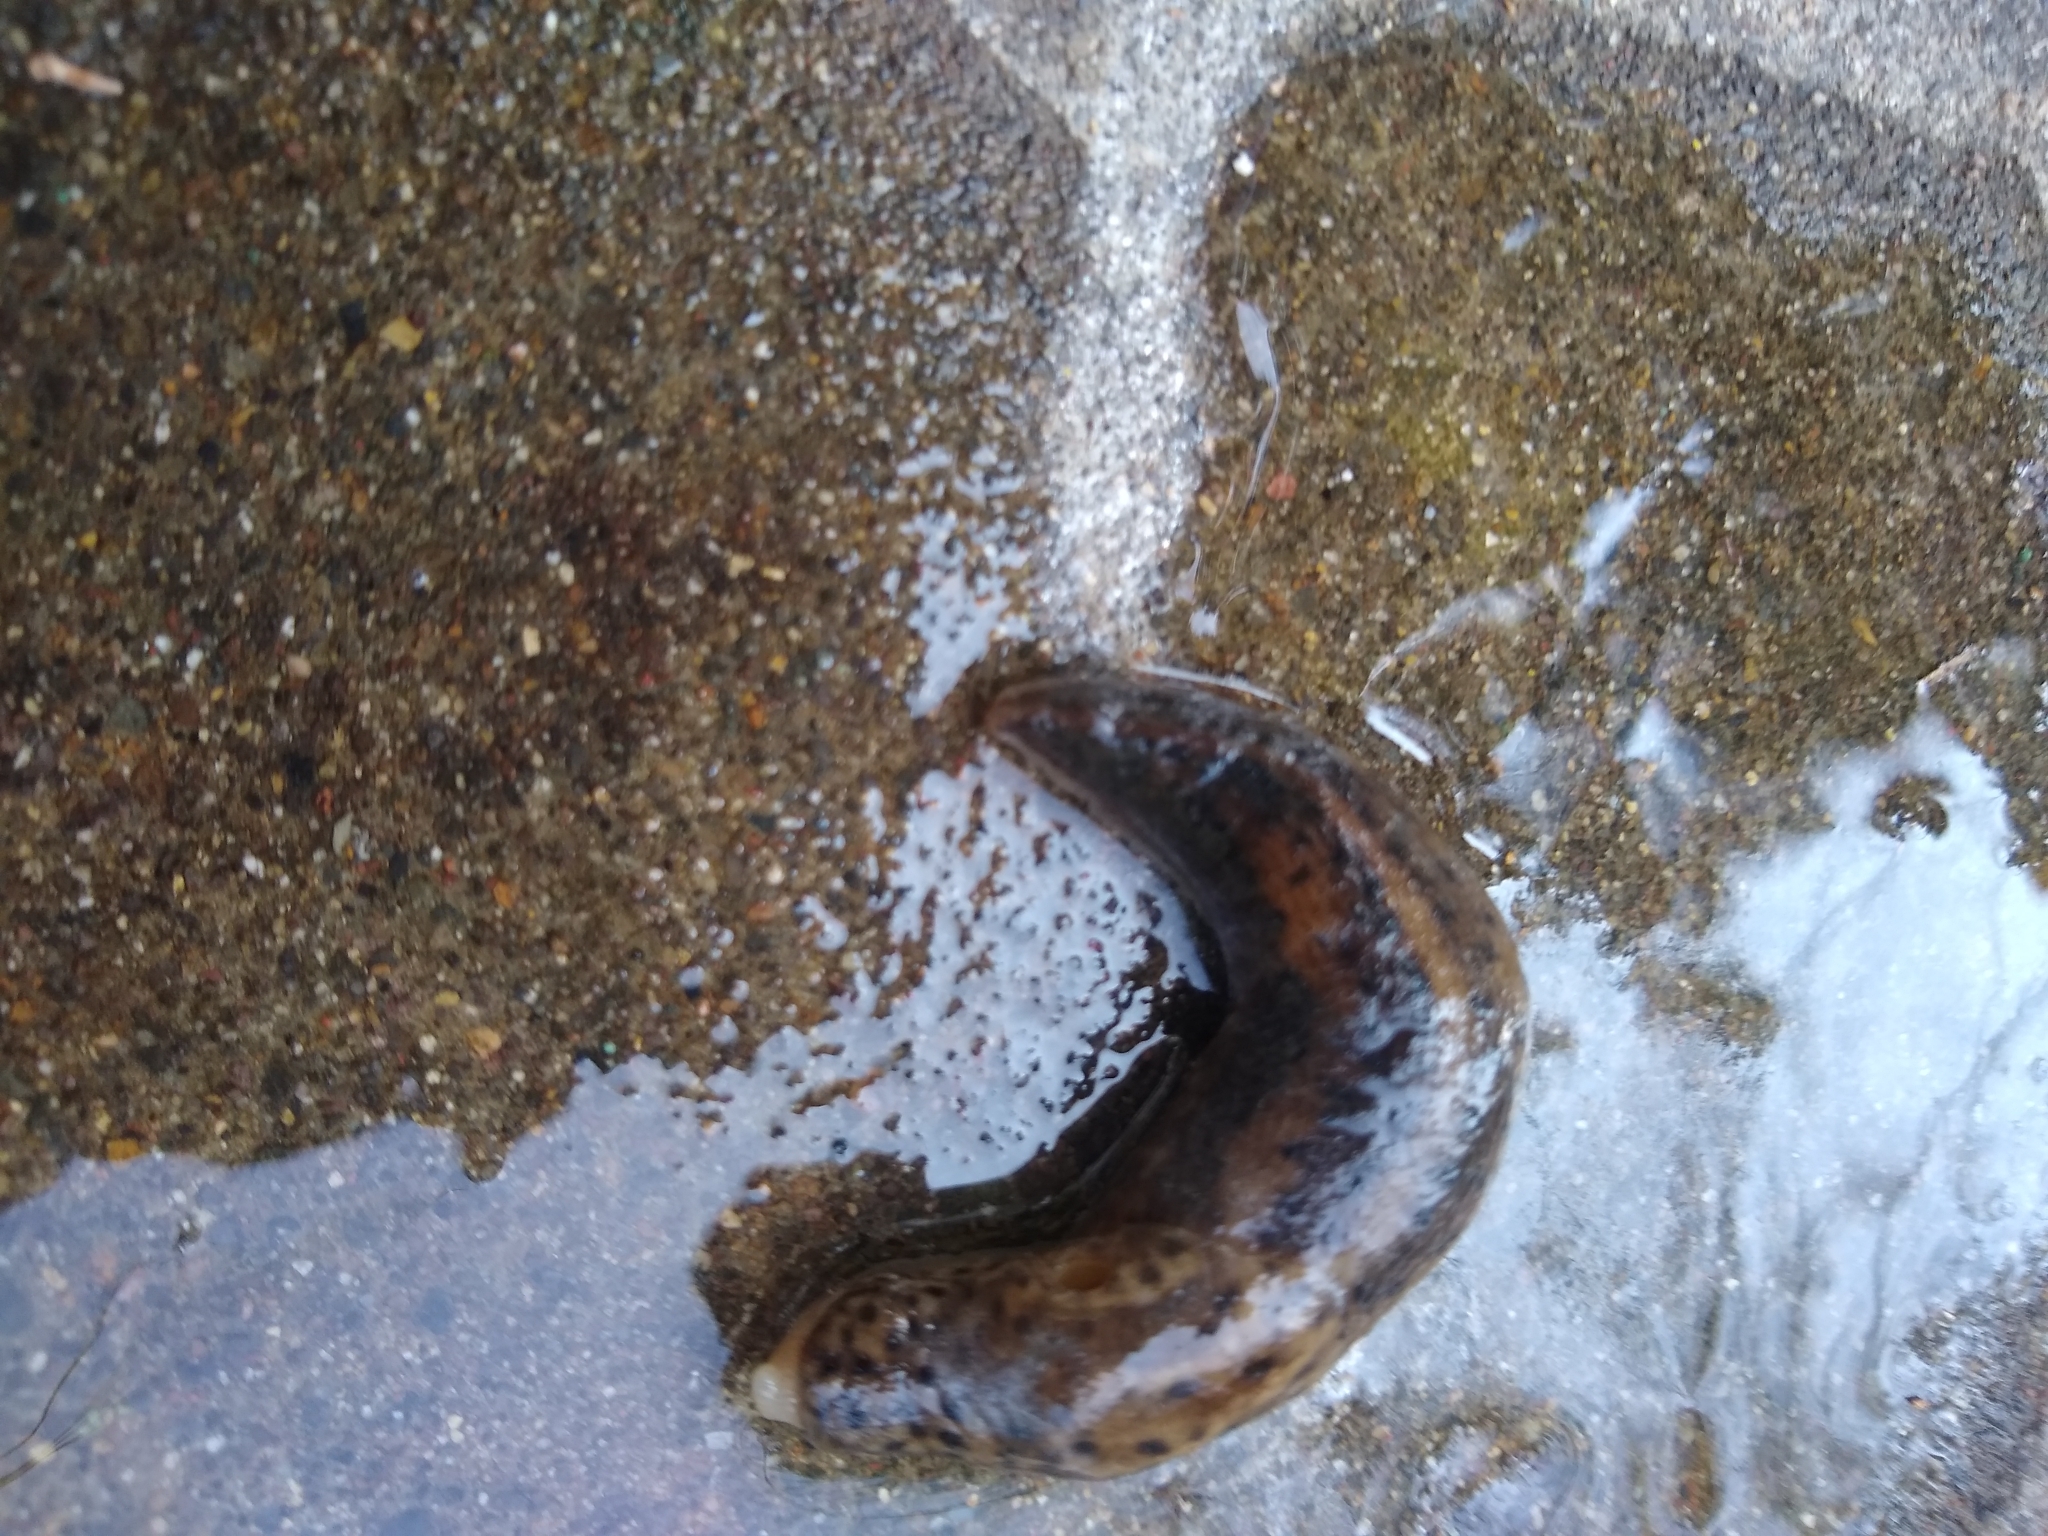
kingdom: Animalia
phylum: Mollusca
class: Gastropoda
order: Stylommatophora
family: Limacidae
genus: Limax
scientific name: Limax maximus
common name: Great grey slug
